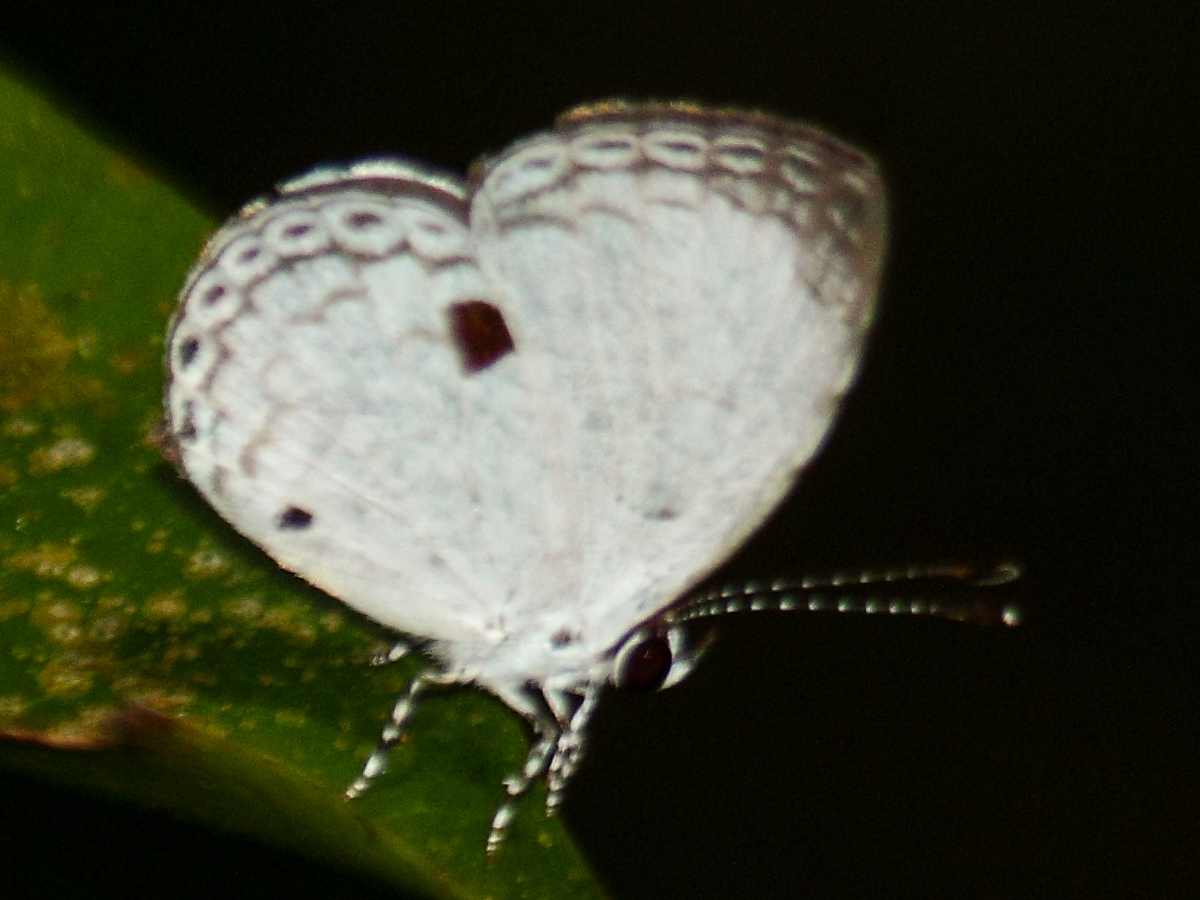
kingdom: Animalia
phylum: Arthropoda
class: Insecta
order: Lepidoptera
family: Lycaenidae
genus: Neopithecops
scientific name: Neopithecops zalmora
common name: Quaker
